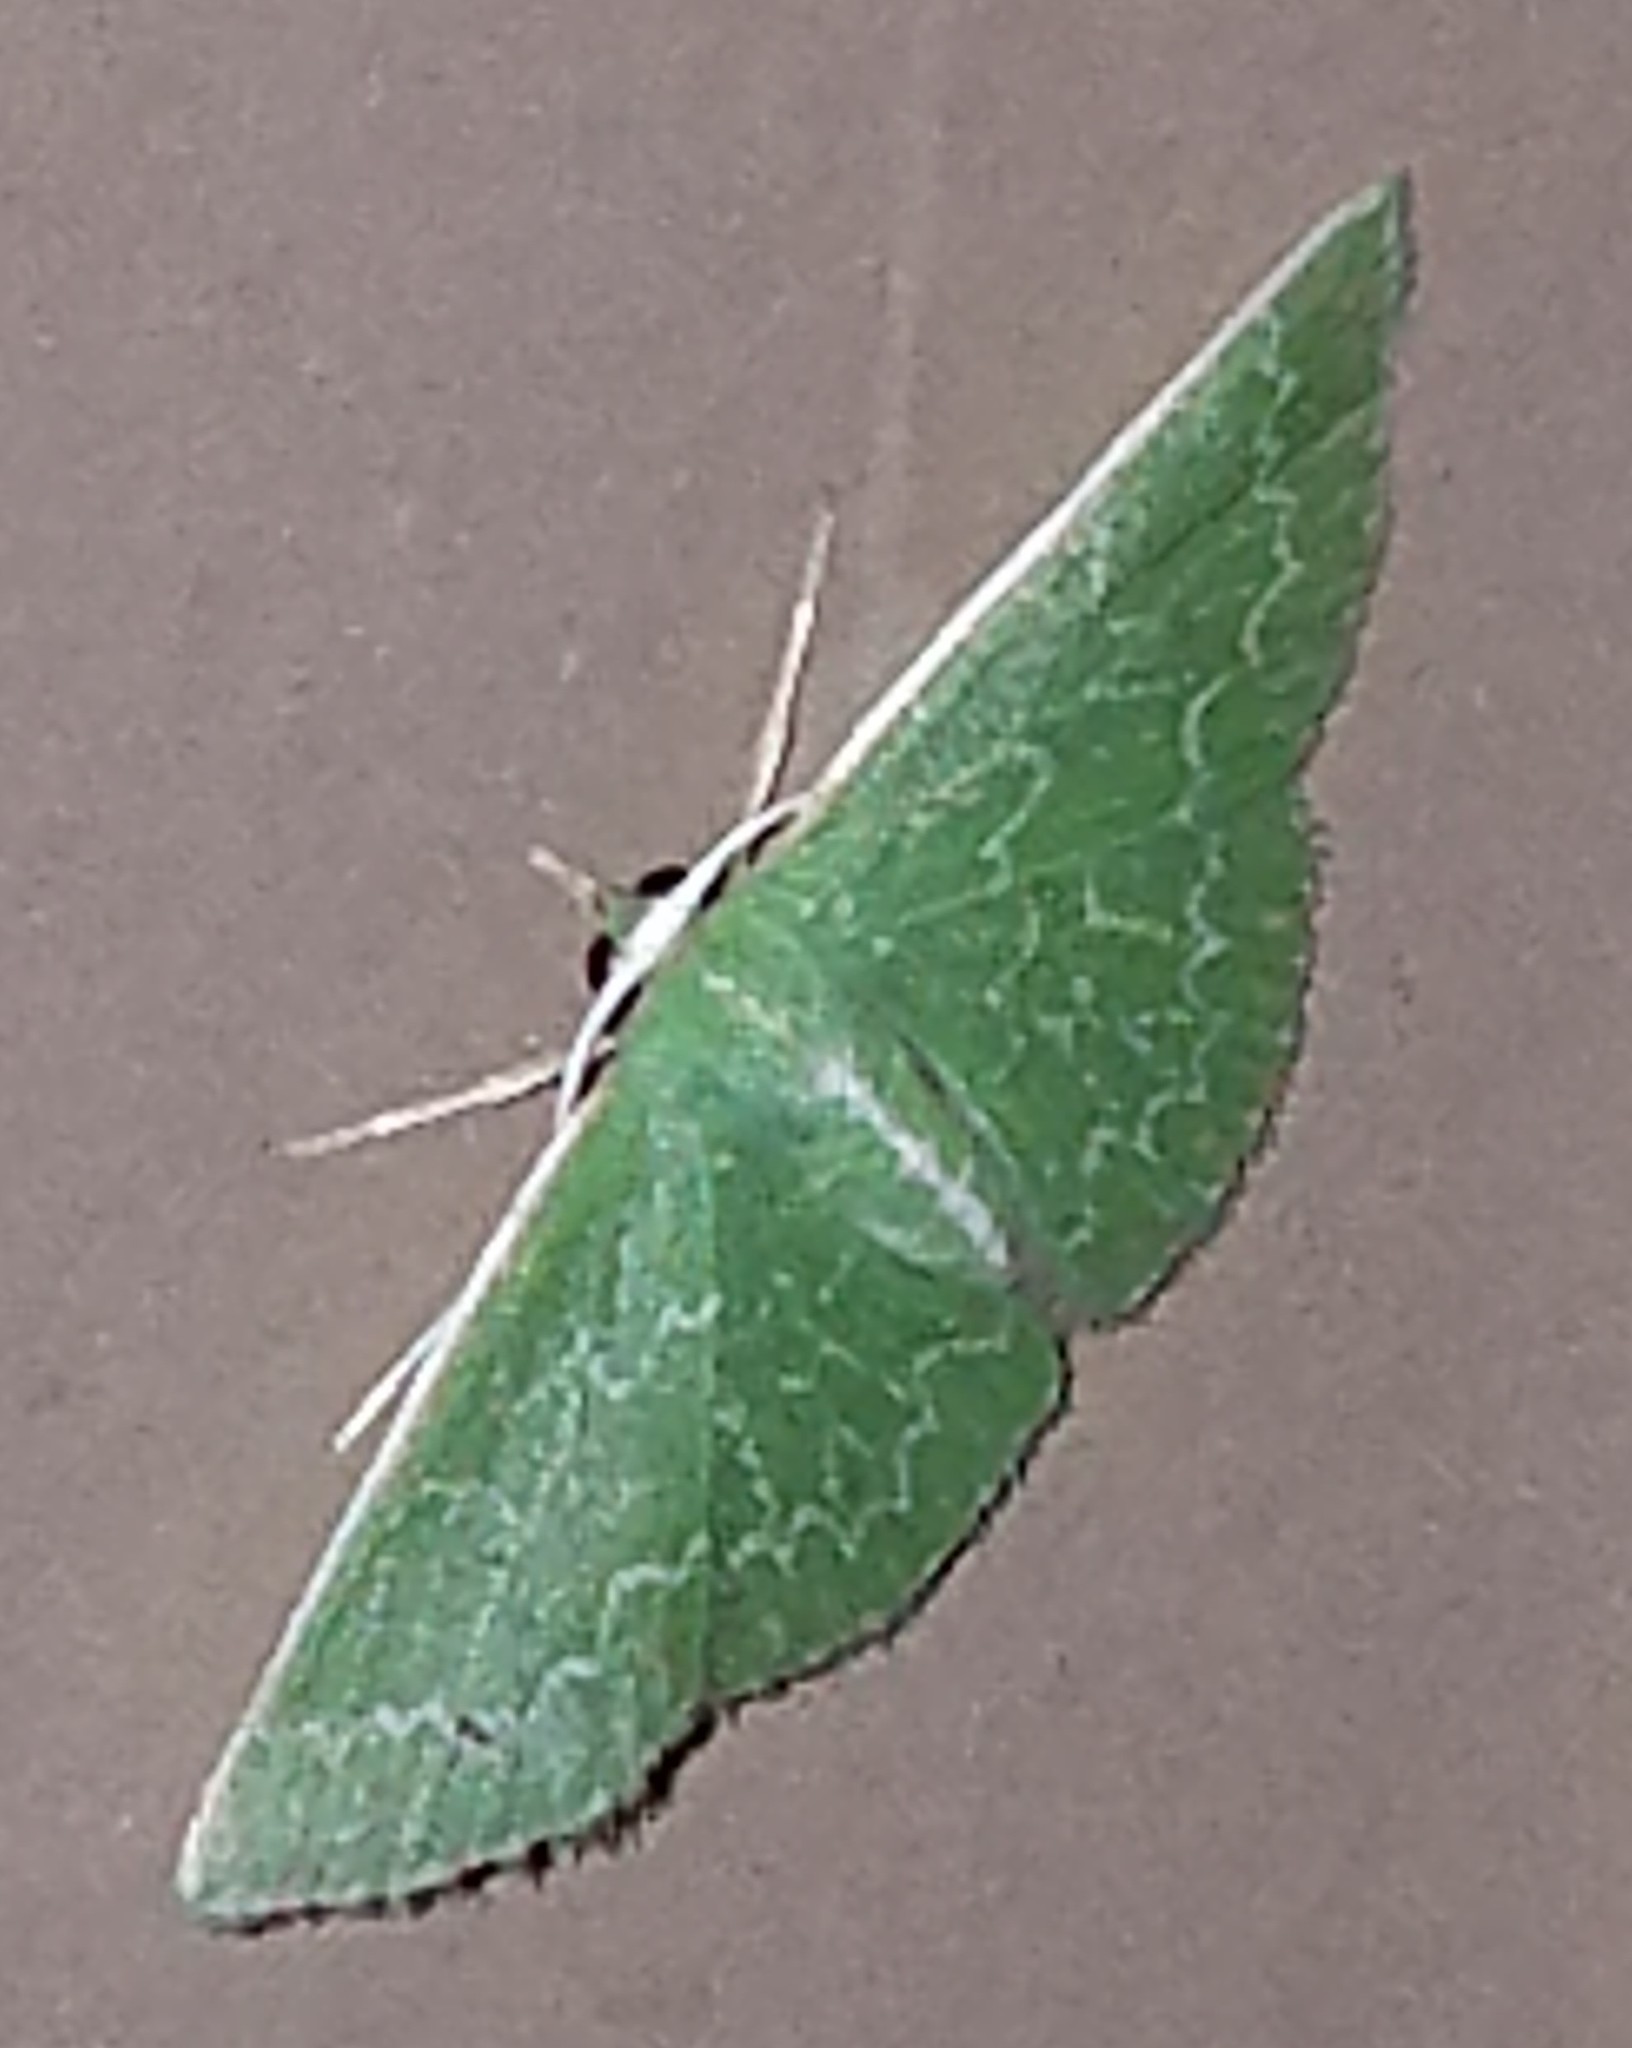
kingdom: Animalia
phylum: Arthropoda
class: Insecta
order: Lepidoptera
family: Geometridae
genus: Synchlora
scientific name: Synchlora frondaria
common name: Southern emerald
